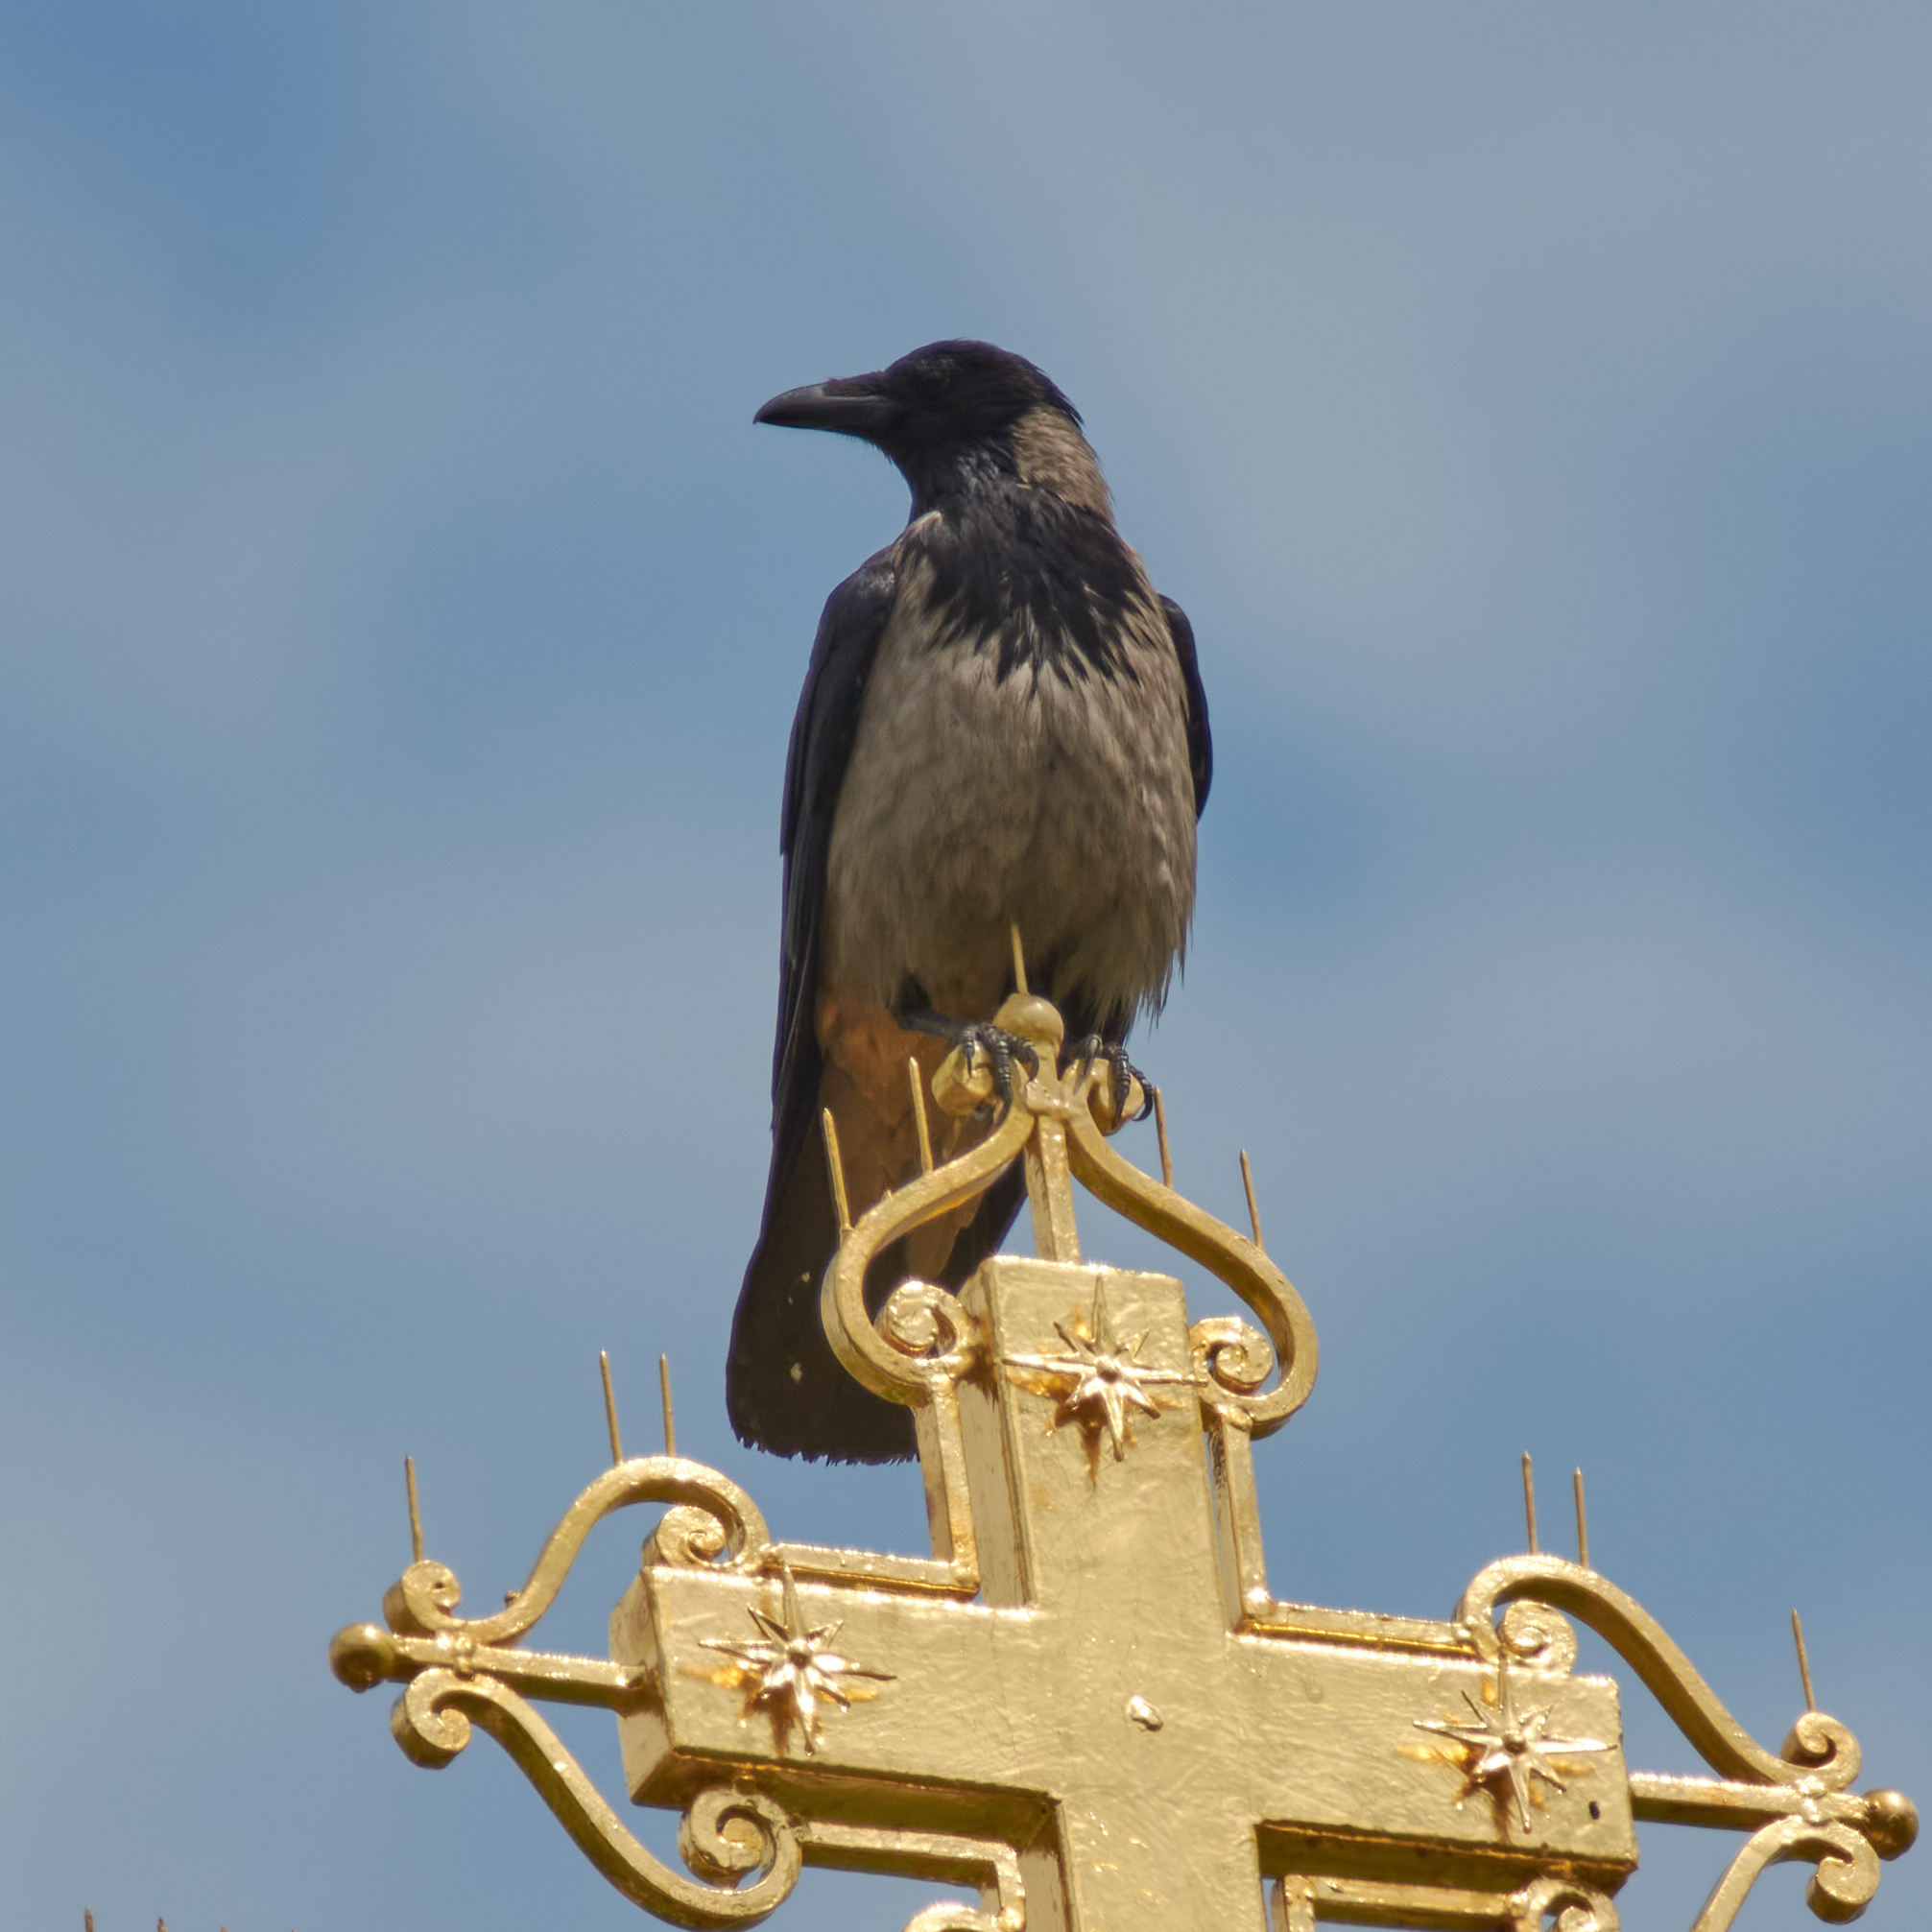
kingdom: Animalia
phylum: Chordata
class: Aves
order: Passeriformes
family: Corvidae
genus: Corvus
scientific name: Corvus cornix
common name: Hooded crow
